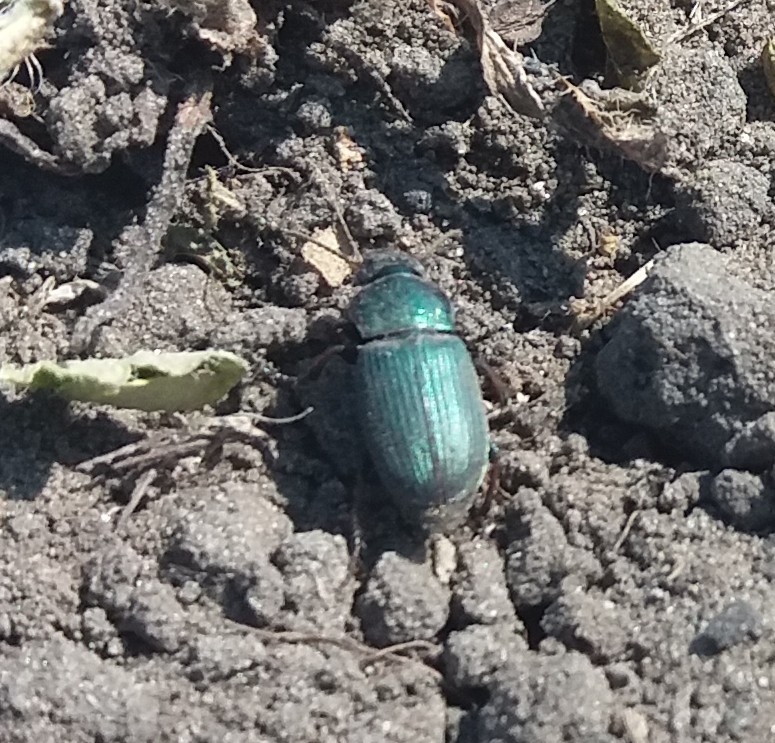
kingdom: Animalia
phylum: Arthropoda
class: Insecta
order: Coleoptera
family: Carabidae
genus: Harpalus
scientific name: Harpalus affinis
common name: Polychrome harp ground beetle
